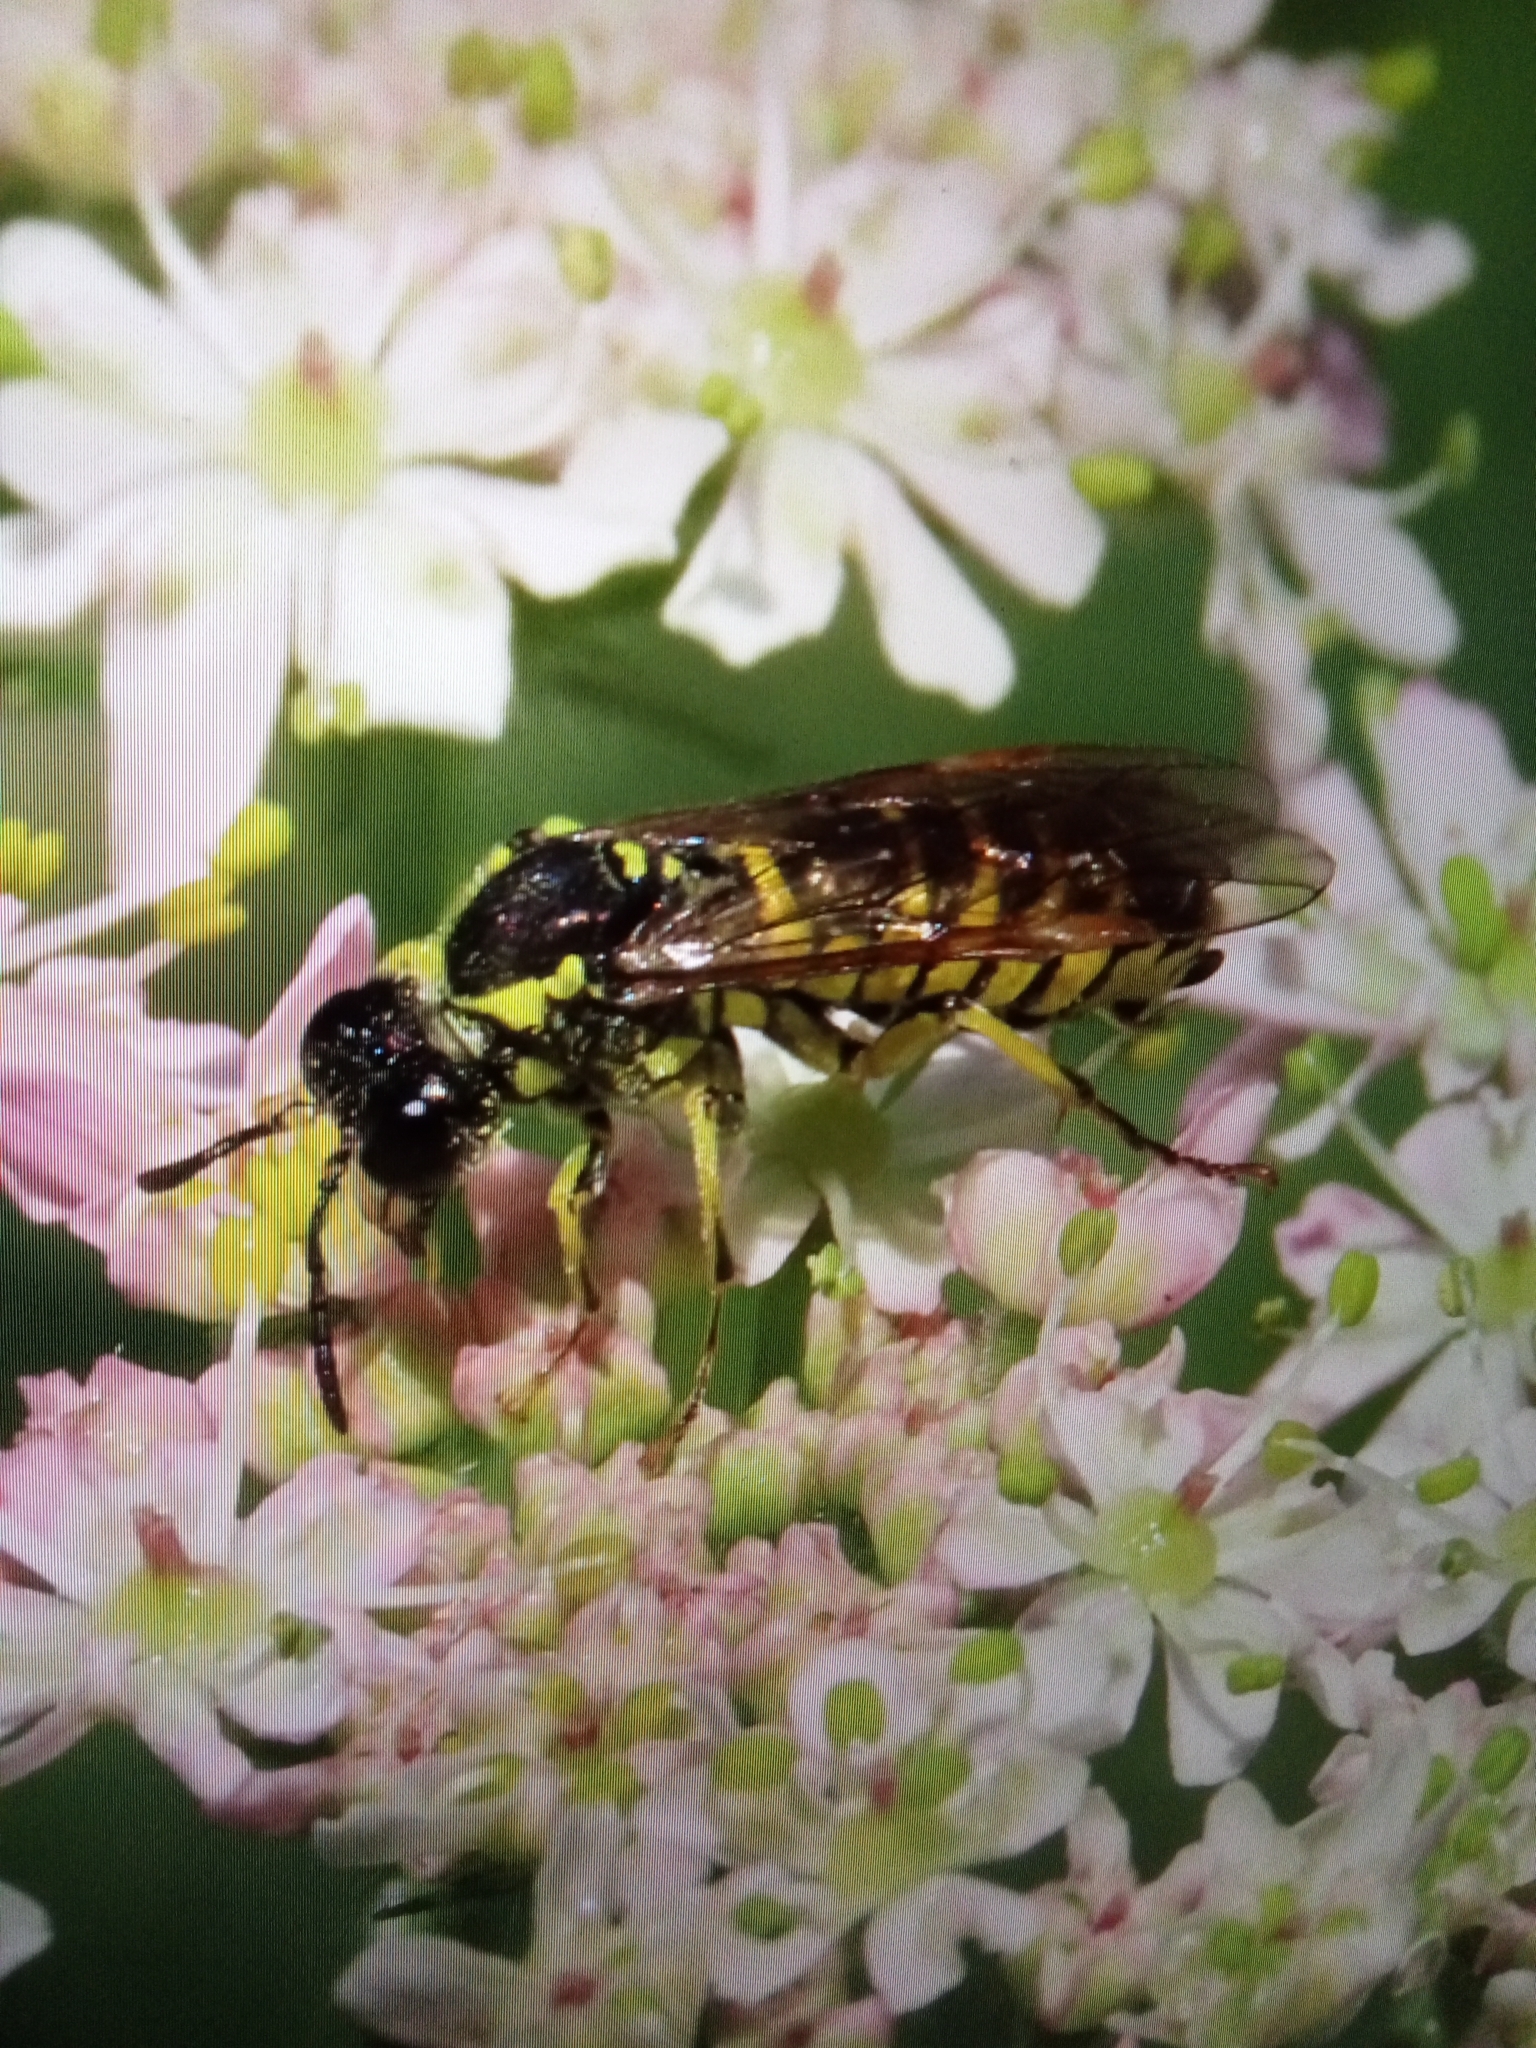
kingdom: Animalia
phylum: Arthropoda
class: Insecta
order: Hymenoptera
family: Tenthredinidae
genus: Tenthredo
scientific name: Tenthredo notha
